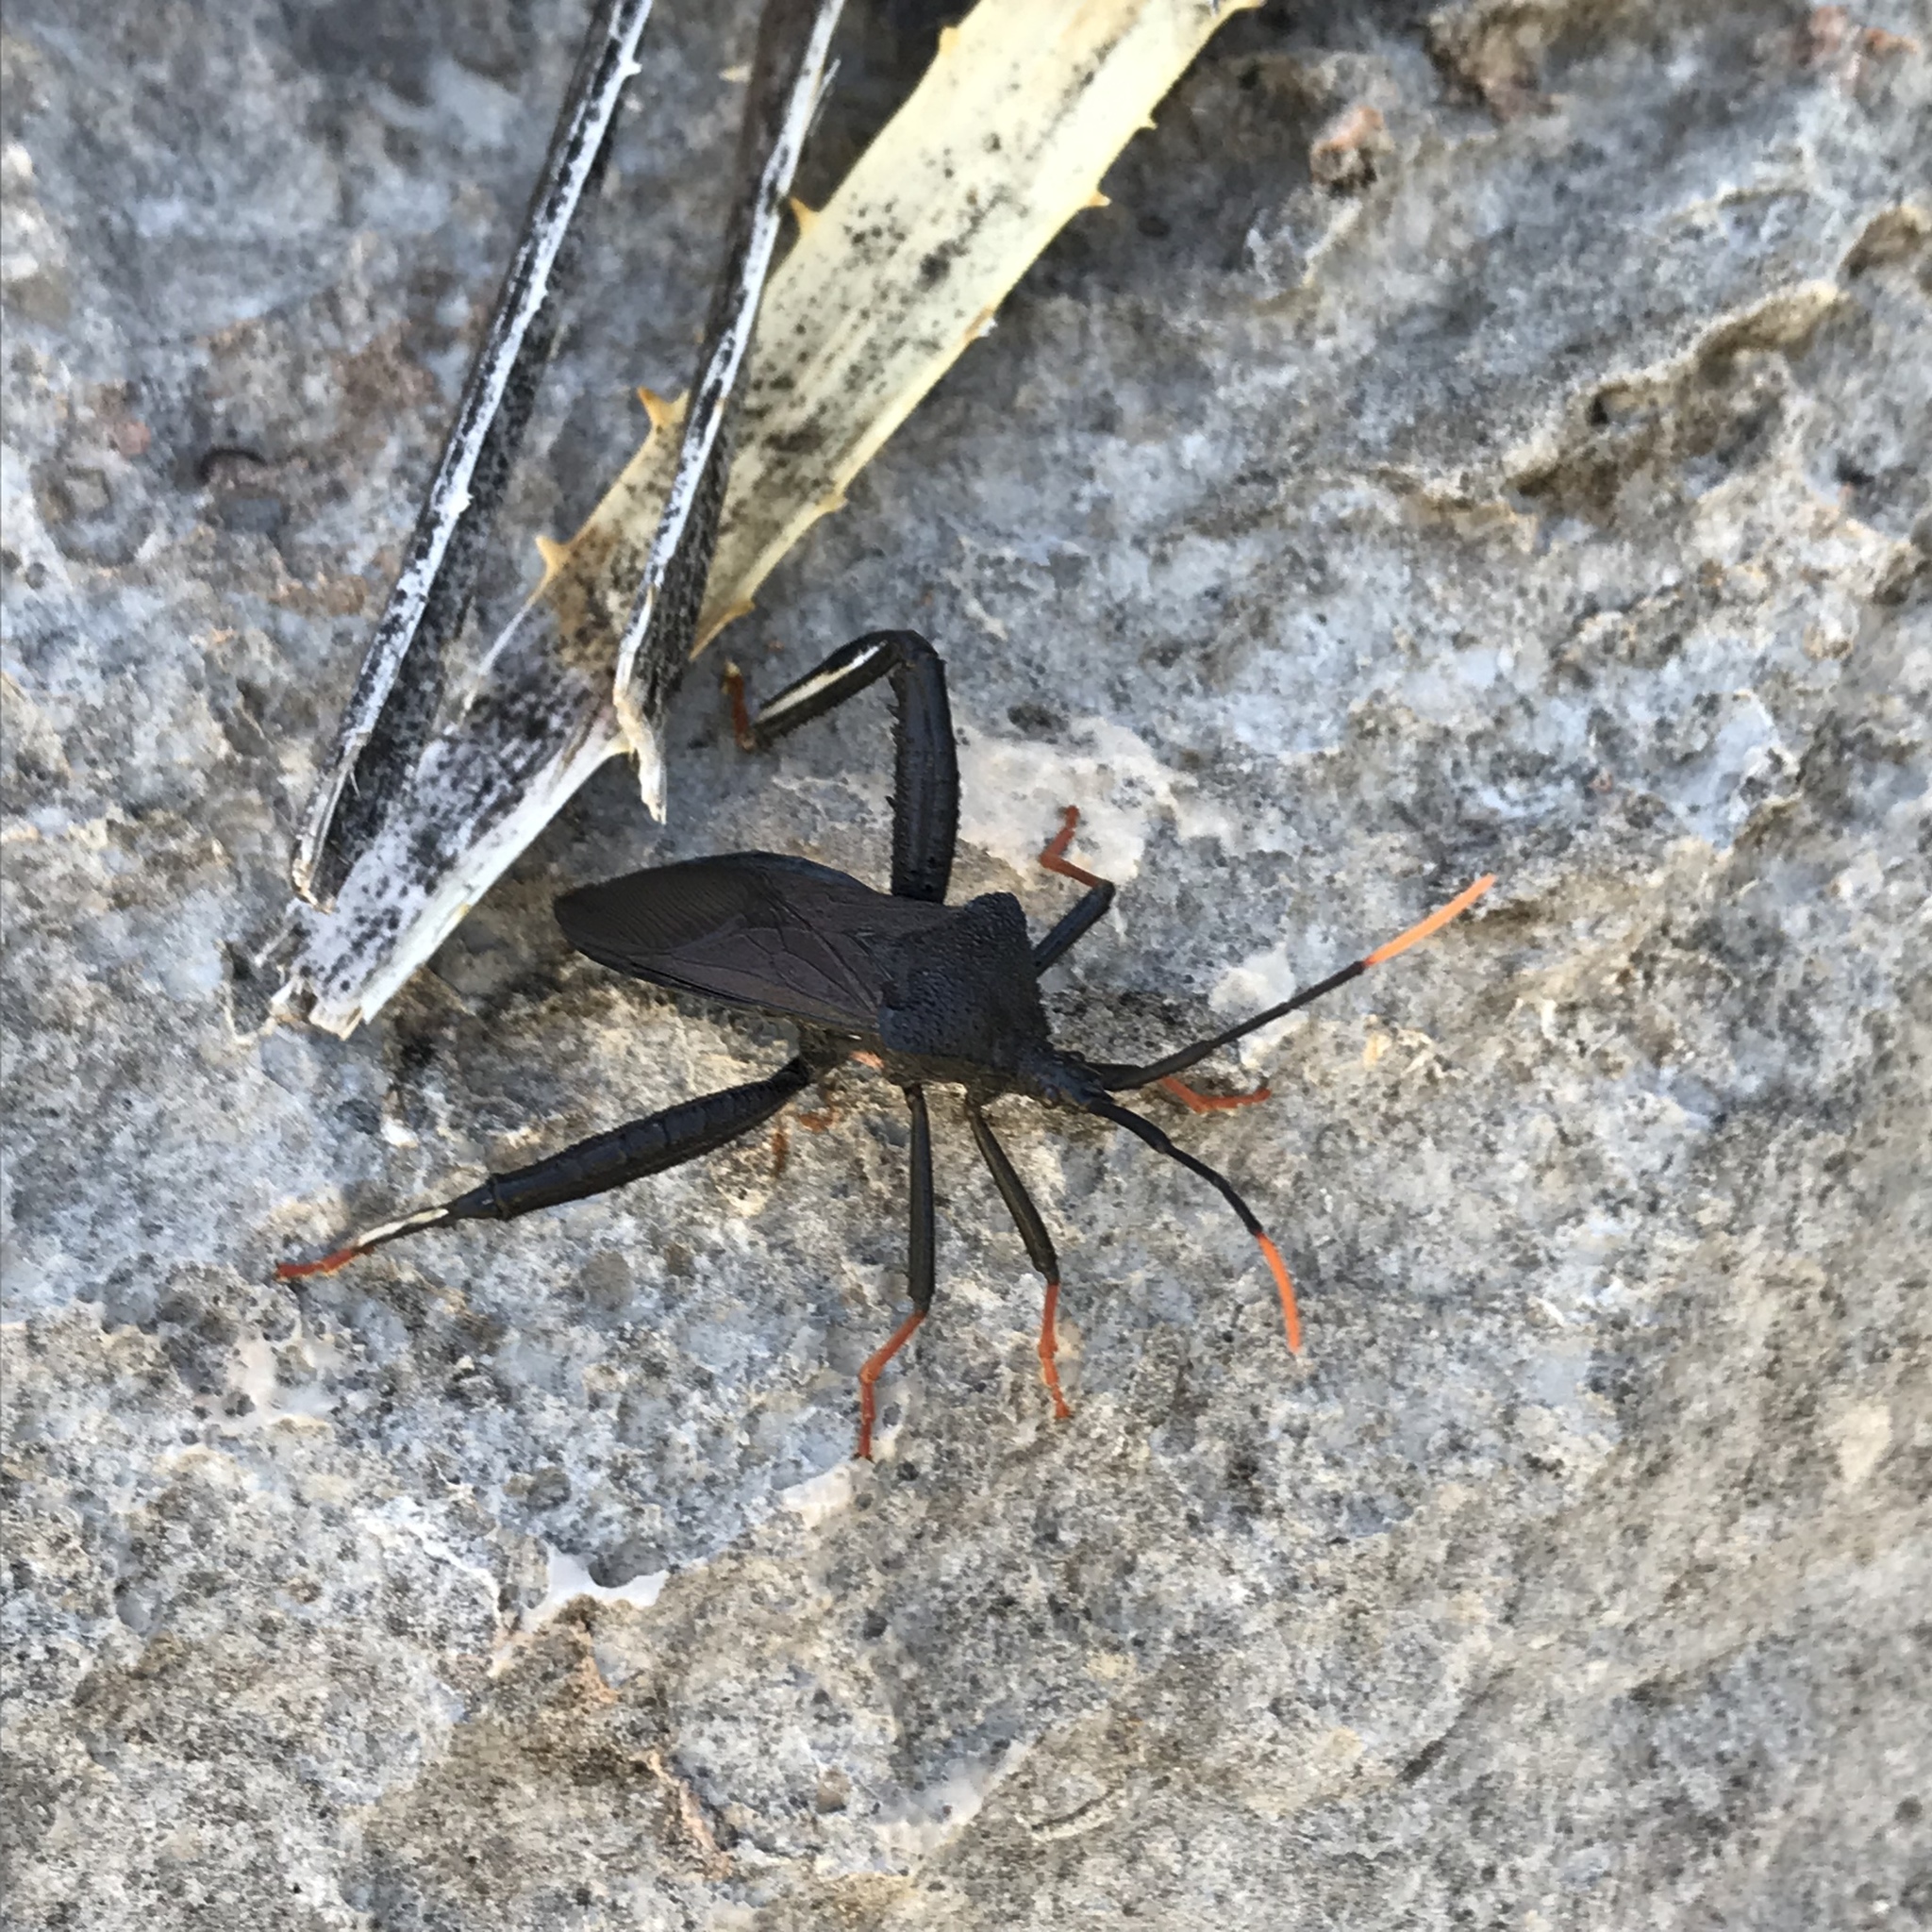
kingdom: Animalia
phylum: Arthropoda
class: Insecta
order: Hemiptera
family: Coreidae
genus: Acanthocephala
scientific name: Acanthocephala thomasi
